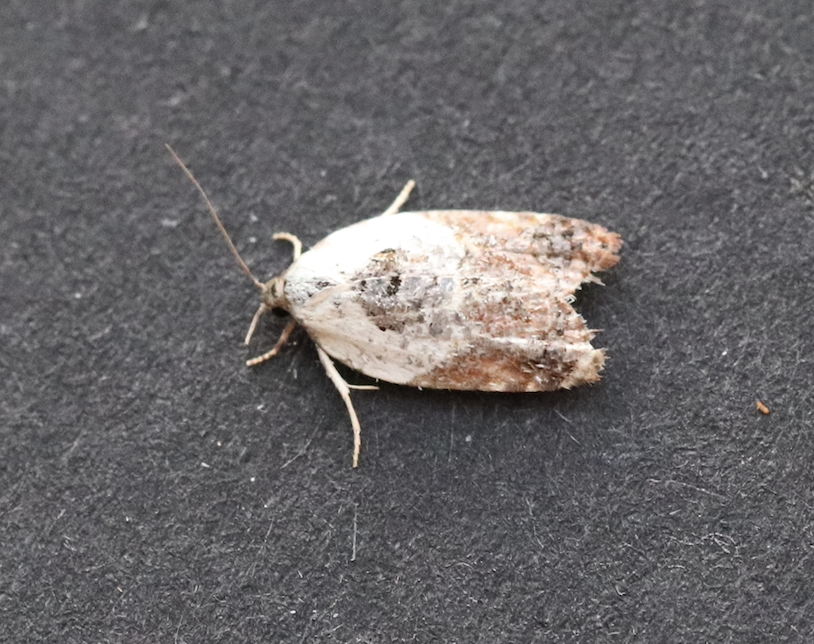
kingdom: Animalia
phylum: Arthropoda
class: Insecta
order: Lepidoptera
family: Tortricidae
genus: Acleris
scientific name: Acleris variegana
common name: Garden rose tortrix
